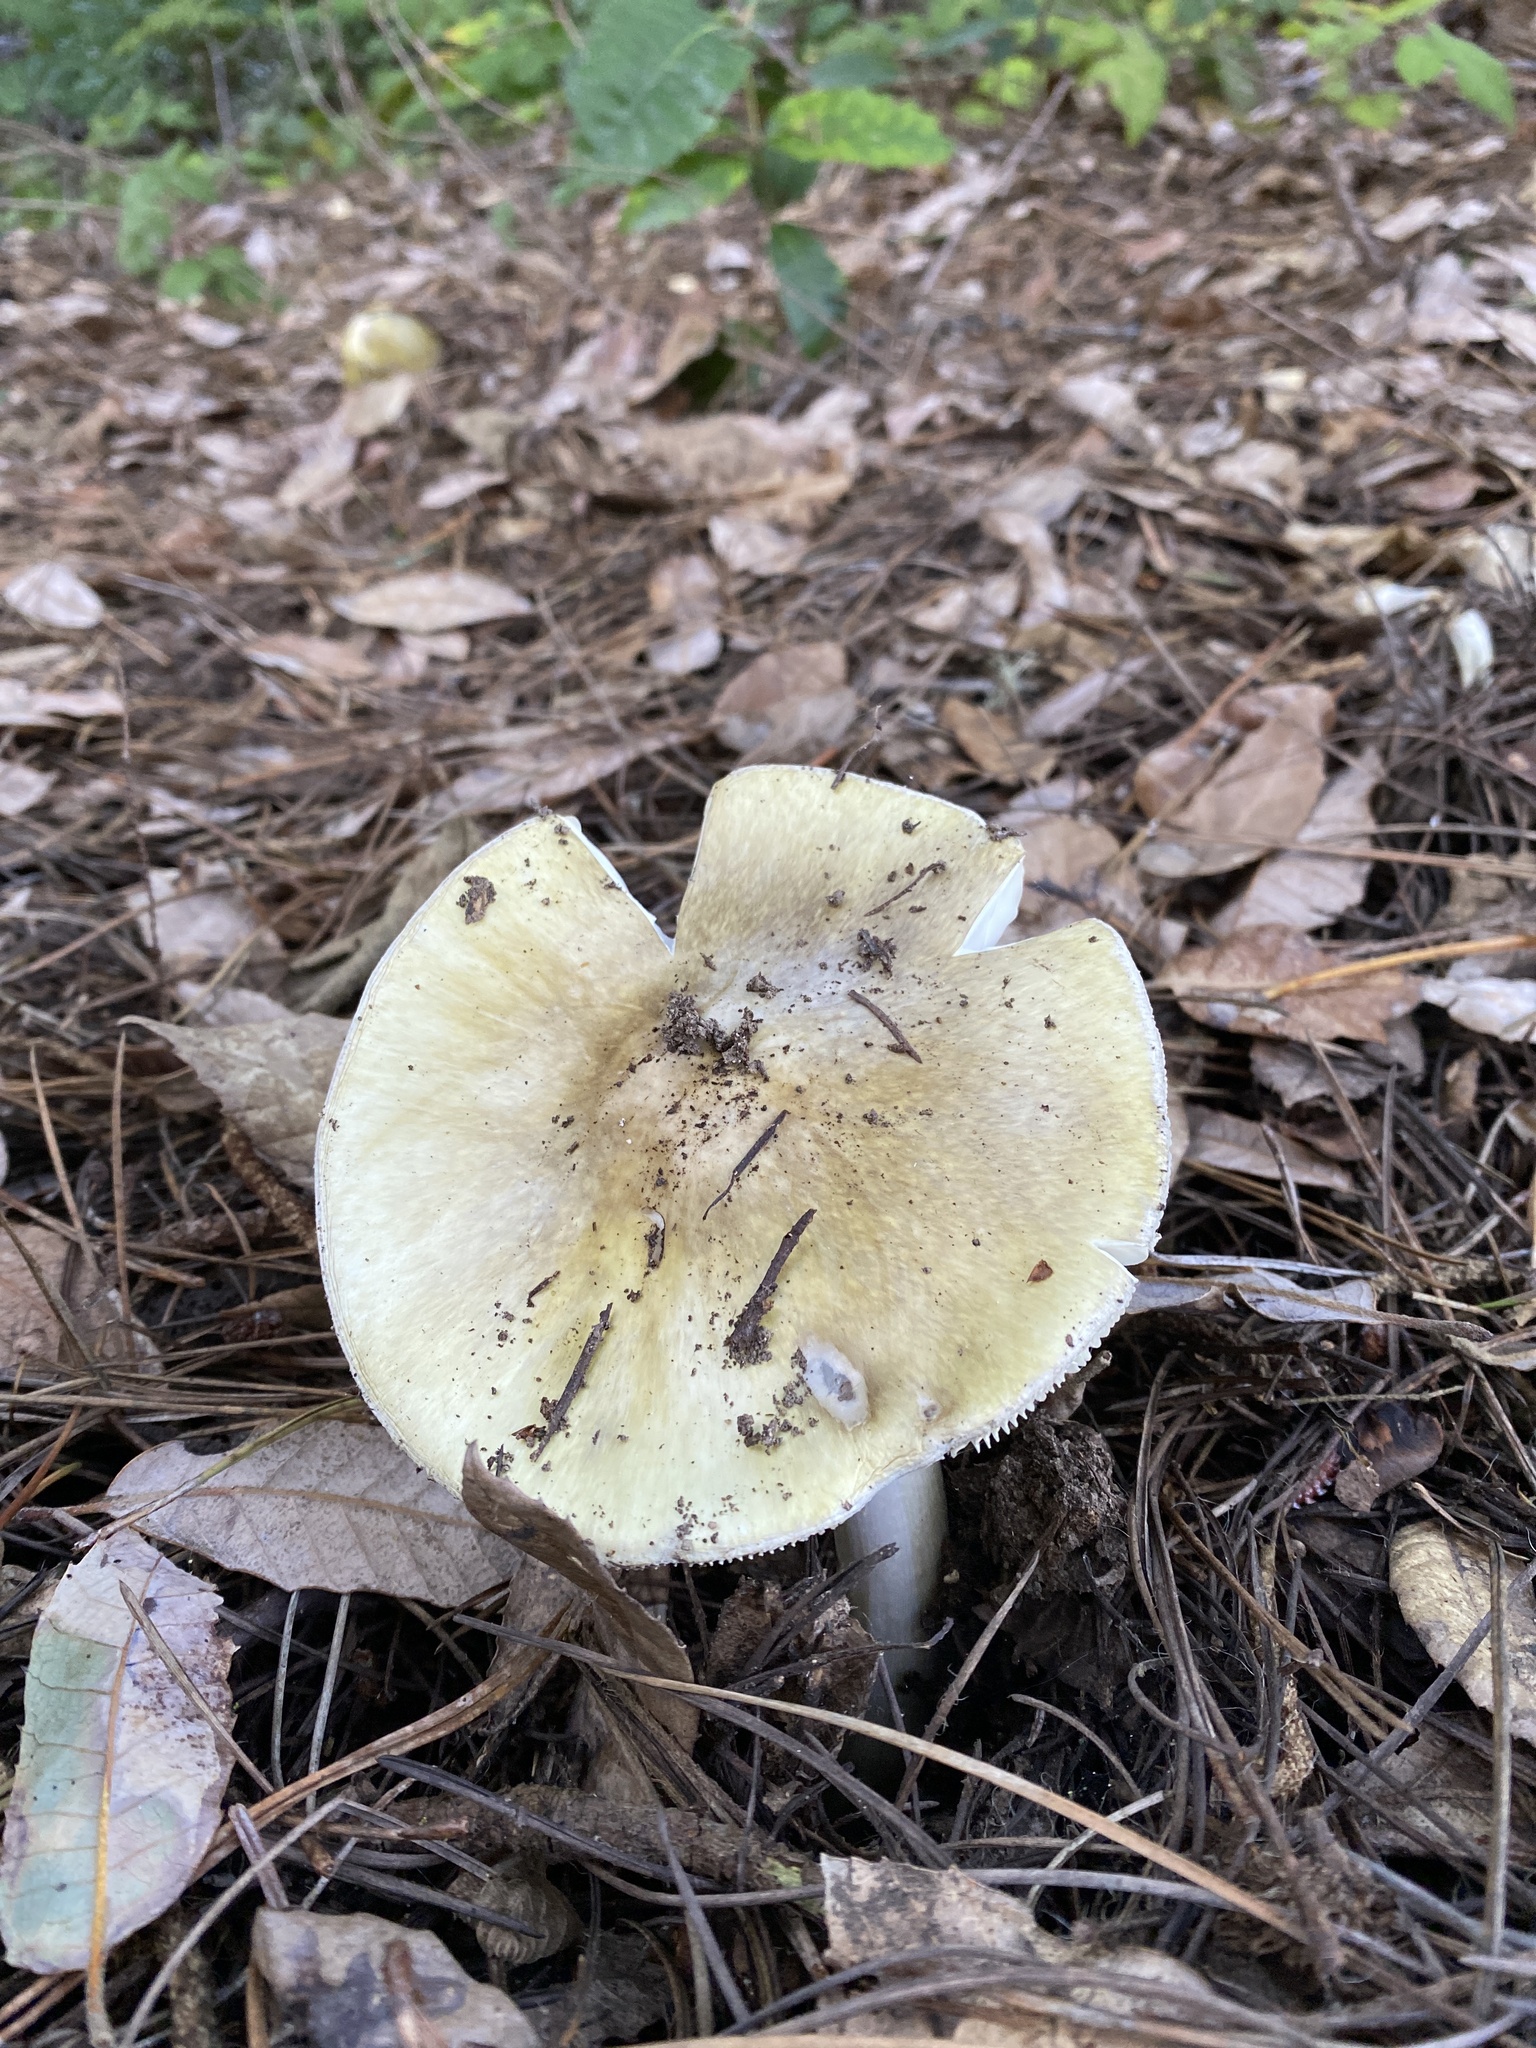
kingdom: Fungi
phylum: Basidiomycota
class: Agaricomycetes
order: Agaricales
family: Amanitaceae
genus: Amanita
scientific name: Amanita phalloides
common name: Death cap
